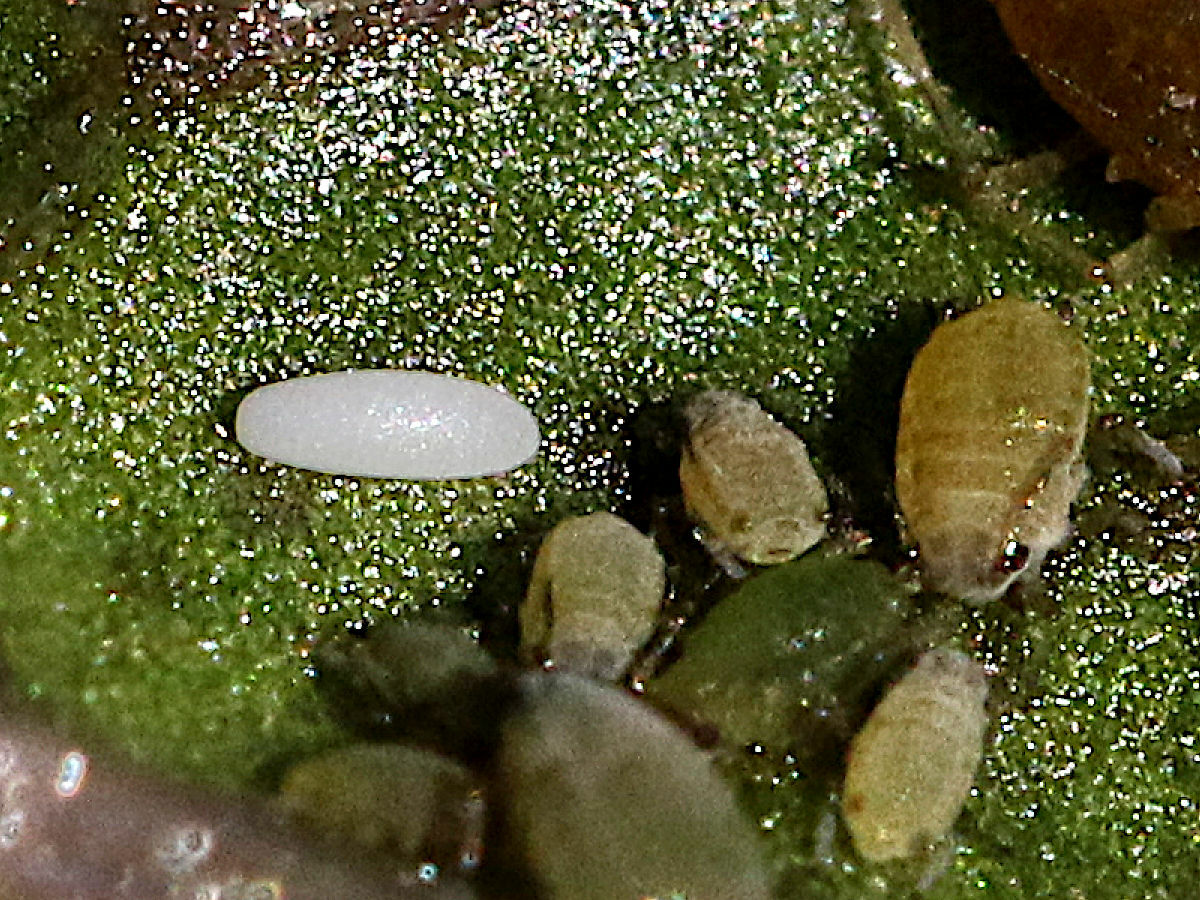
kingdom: Animalia
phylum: Arthropoda
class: Insecta
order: Diptera
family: Syrphidae
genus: Allograpta
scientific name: Allograpta exotica
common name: Syrphid fly
